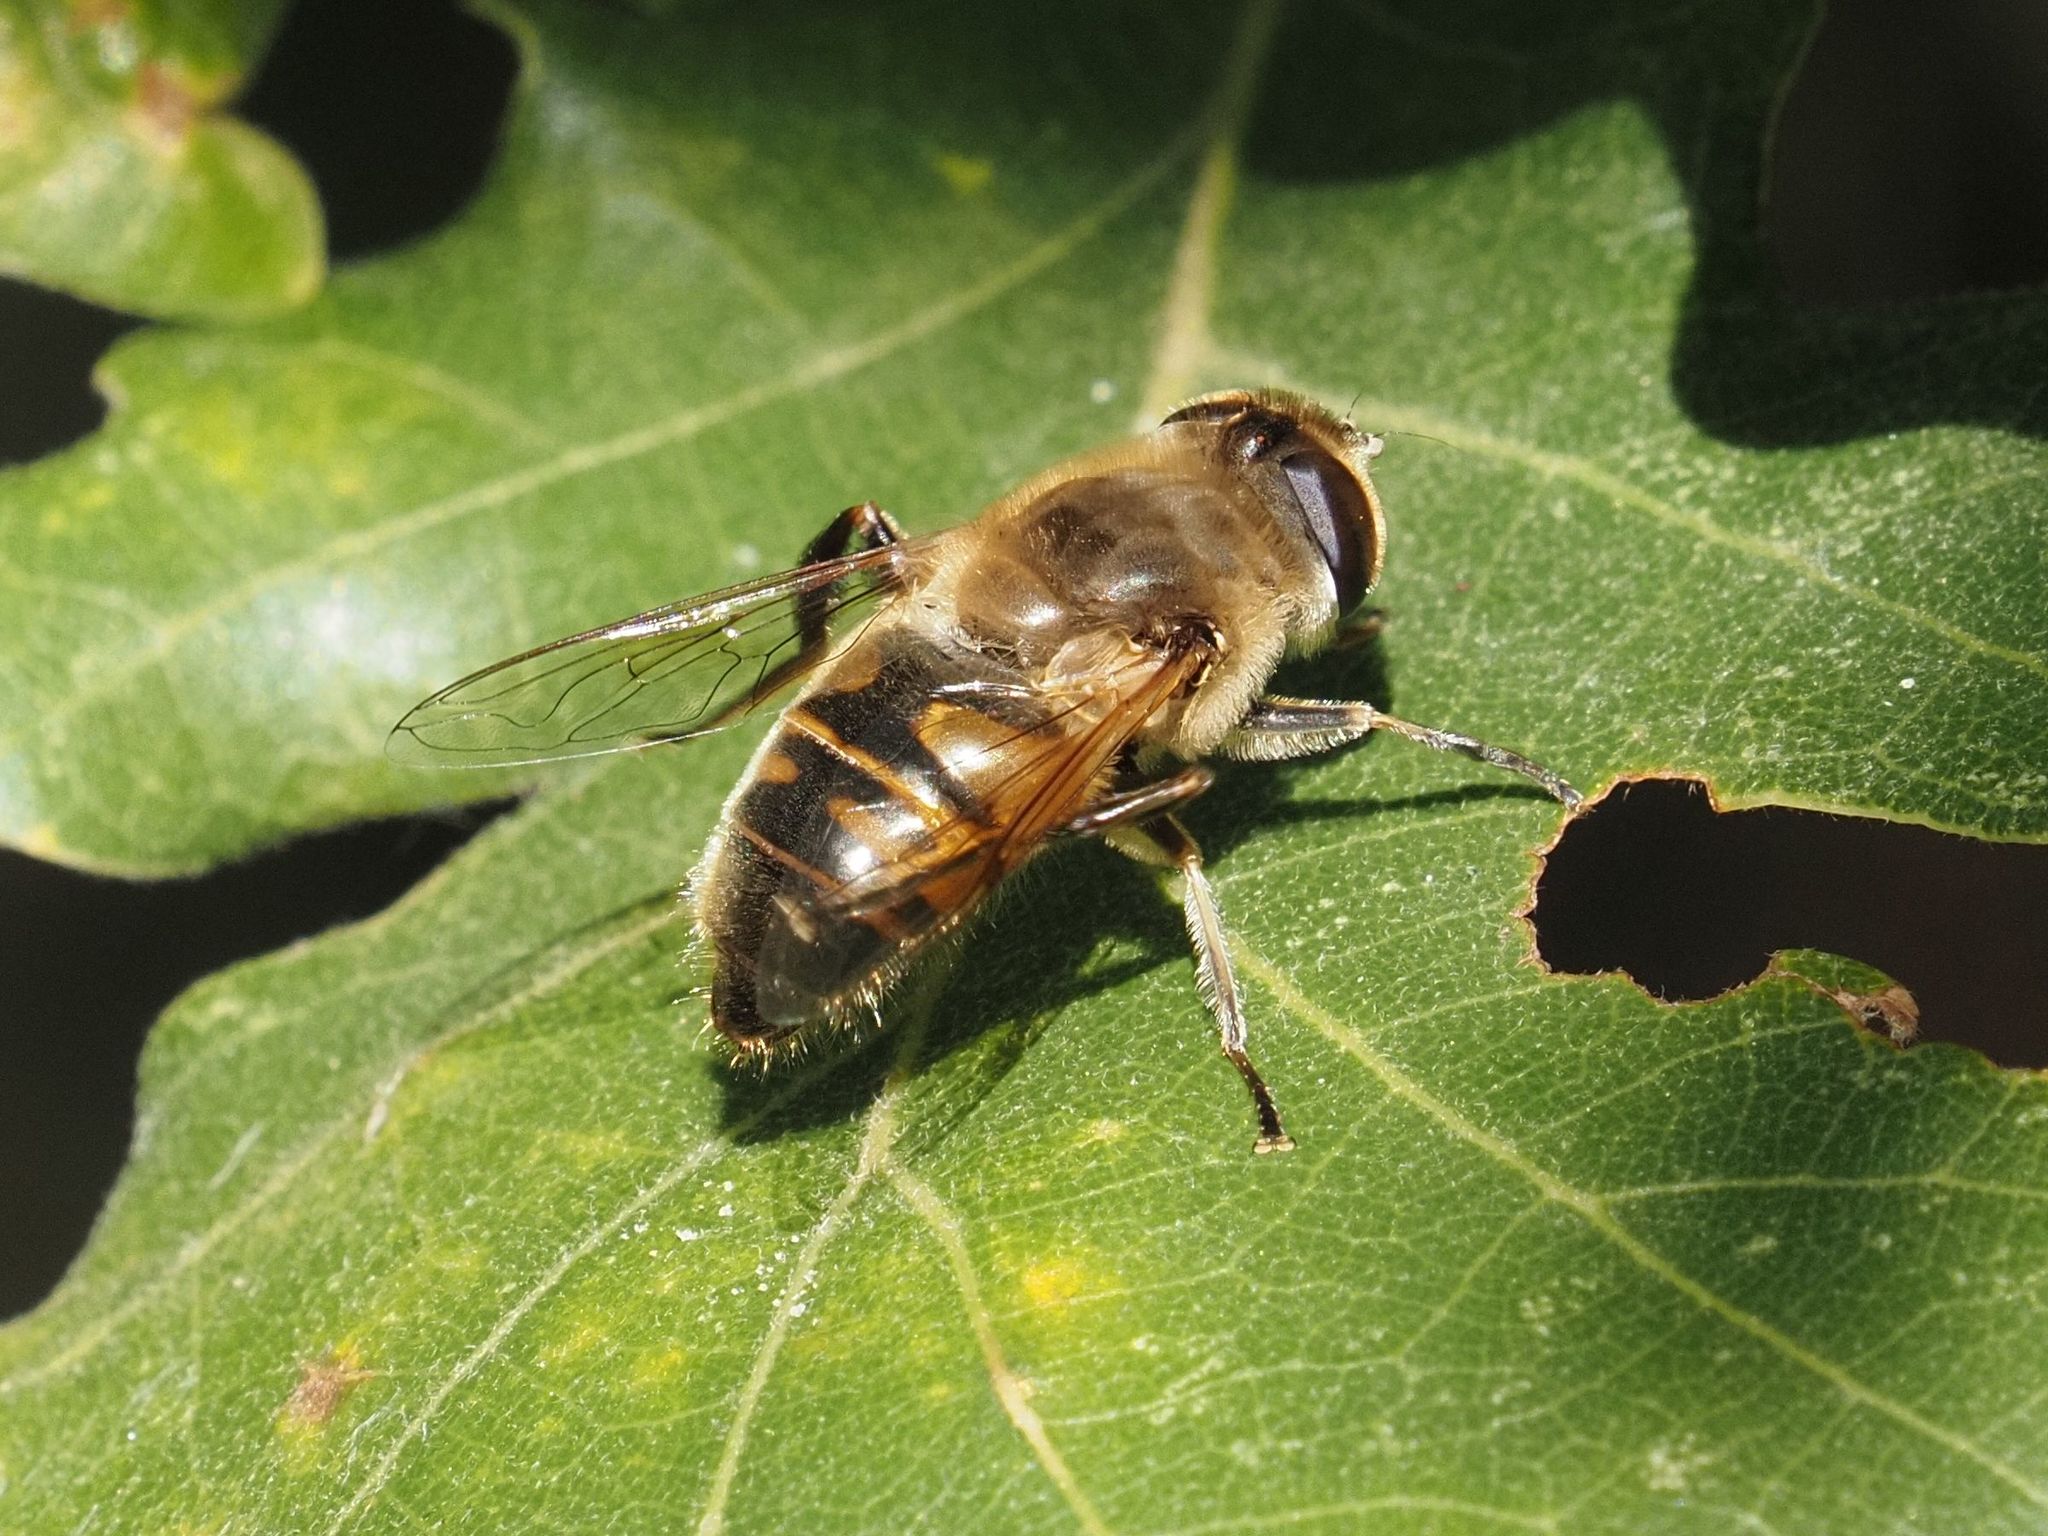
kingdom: Animalia
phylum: Arthropoda
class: Insecta
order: Diptera
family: Syrphidae
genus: Eristalis
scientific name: Eristalis tenax
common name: Drone fly
